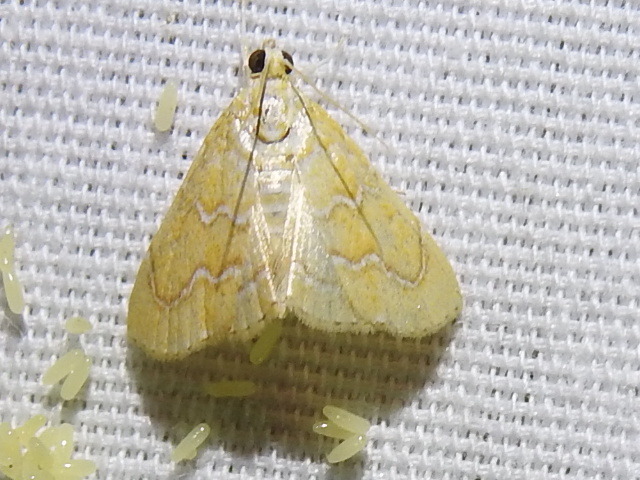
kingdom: Animalia
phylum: Arthropoda
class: Insecta
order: Lepidoptera
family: Crambidae
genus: Glaphyria
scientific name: Glaphyria sesquistrialis
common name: White-roped glaphyria
